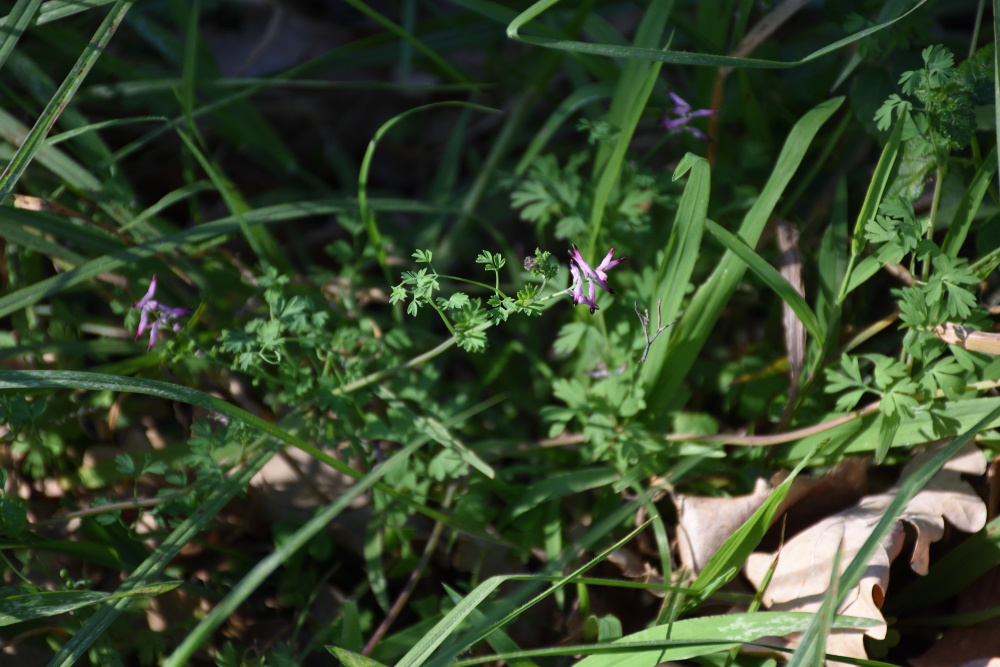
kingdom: Plantae
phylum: Tracheophyta
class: Magnoliopsida
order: Ranunculales
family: Papaveraceae
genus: Fumaria
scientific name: Fumaria muralis
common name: Common ramping-fumitory
